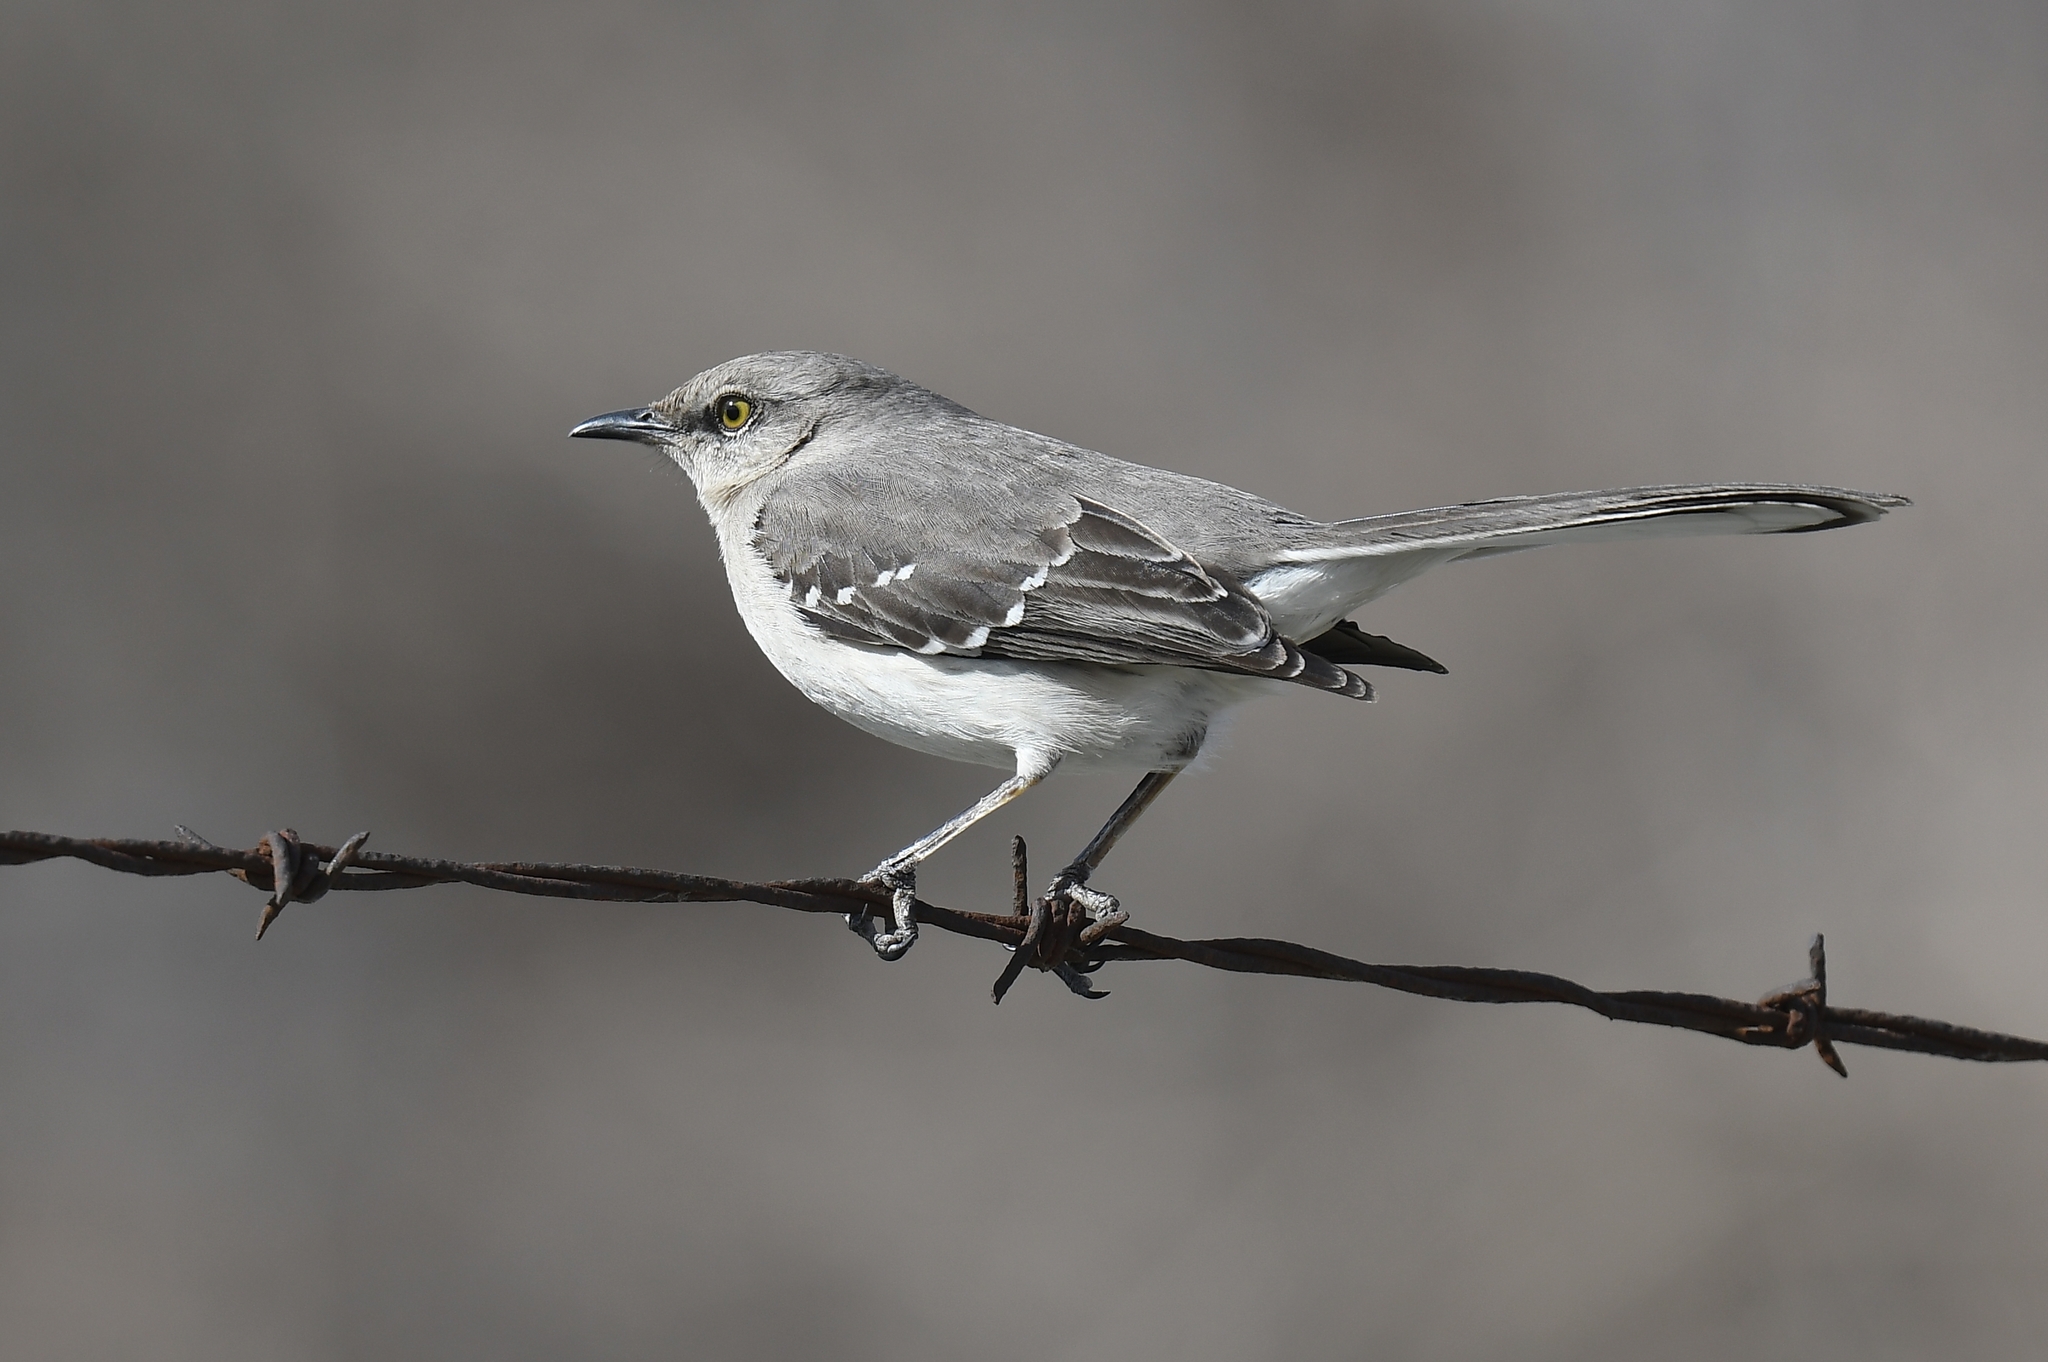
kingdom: Animalia
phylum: Chordata
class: Aves
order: Passeriformes
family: Mimidae
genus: Mimus
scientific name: Mimus polyglottos
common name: Northern mockingbird
